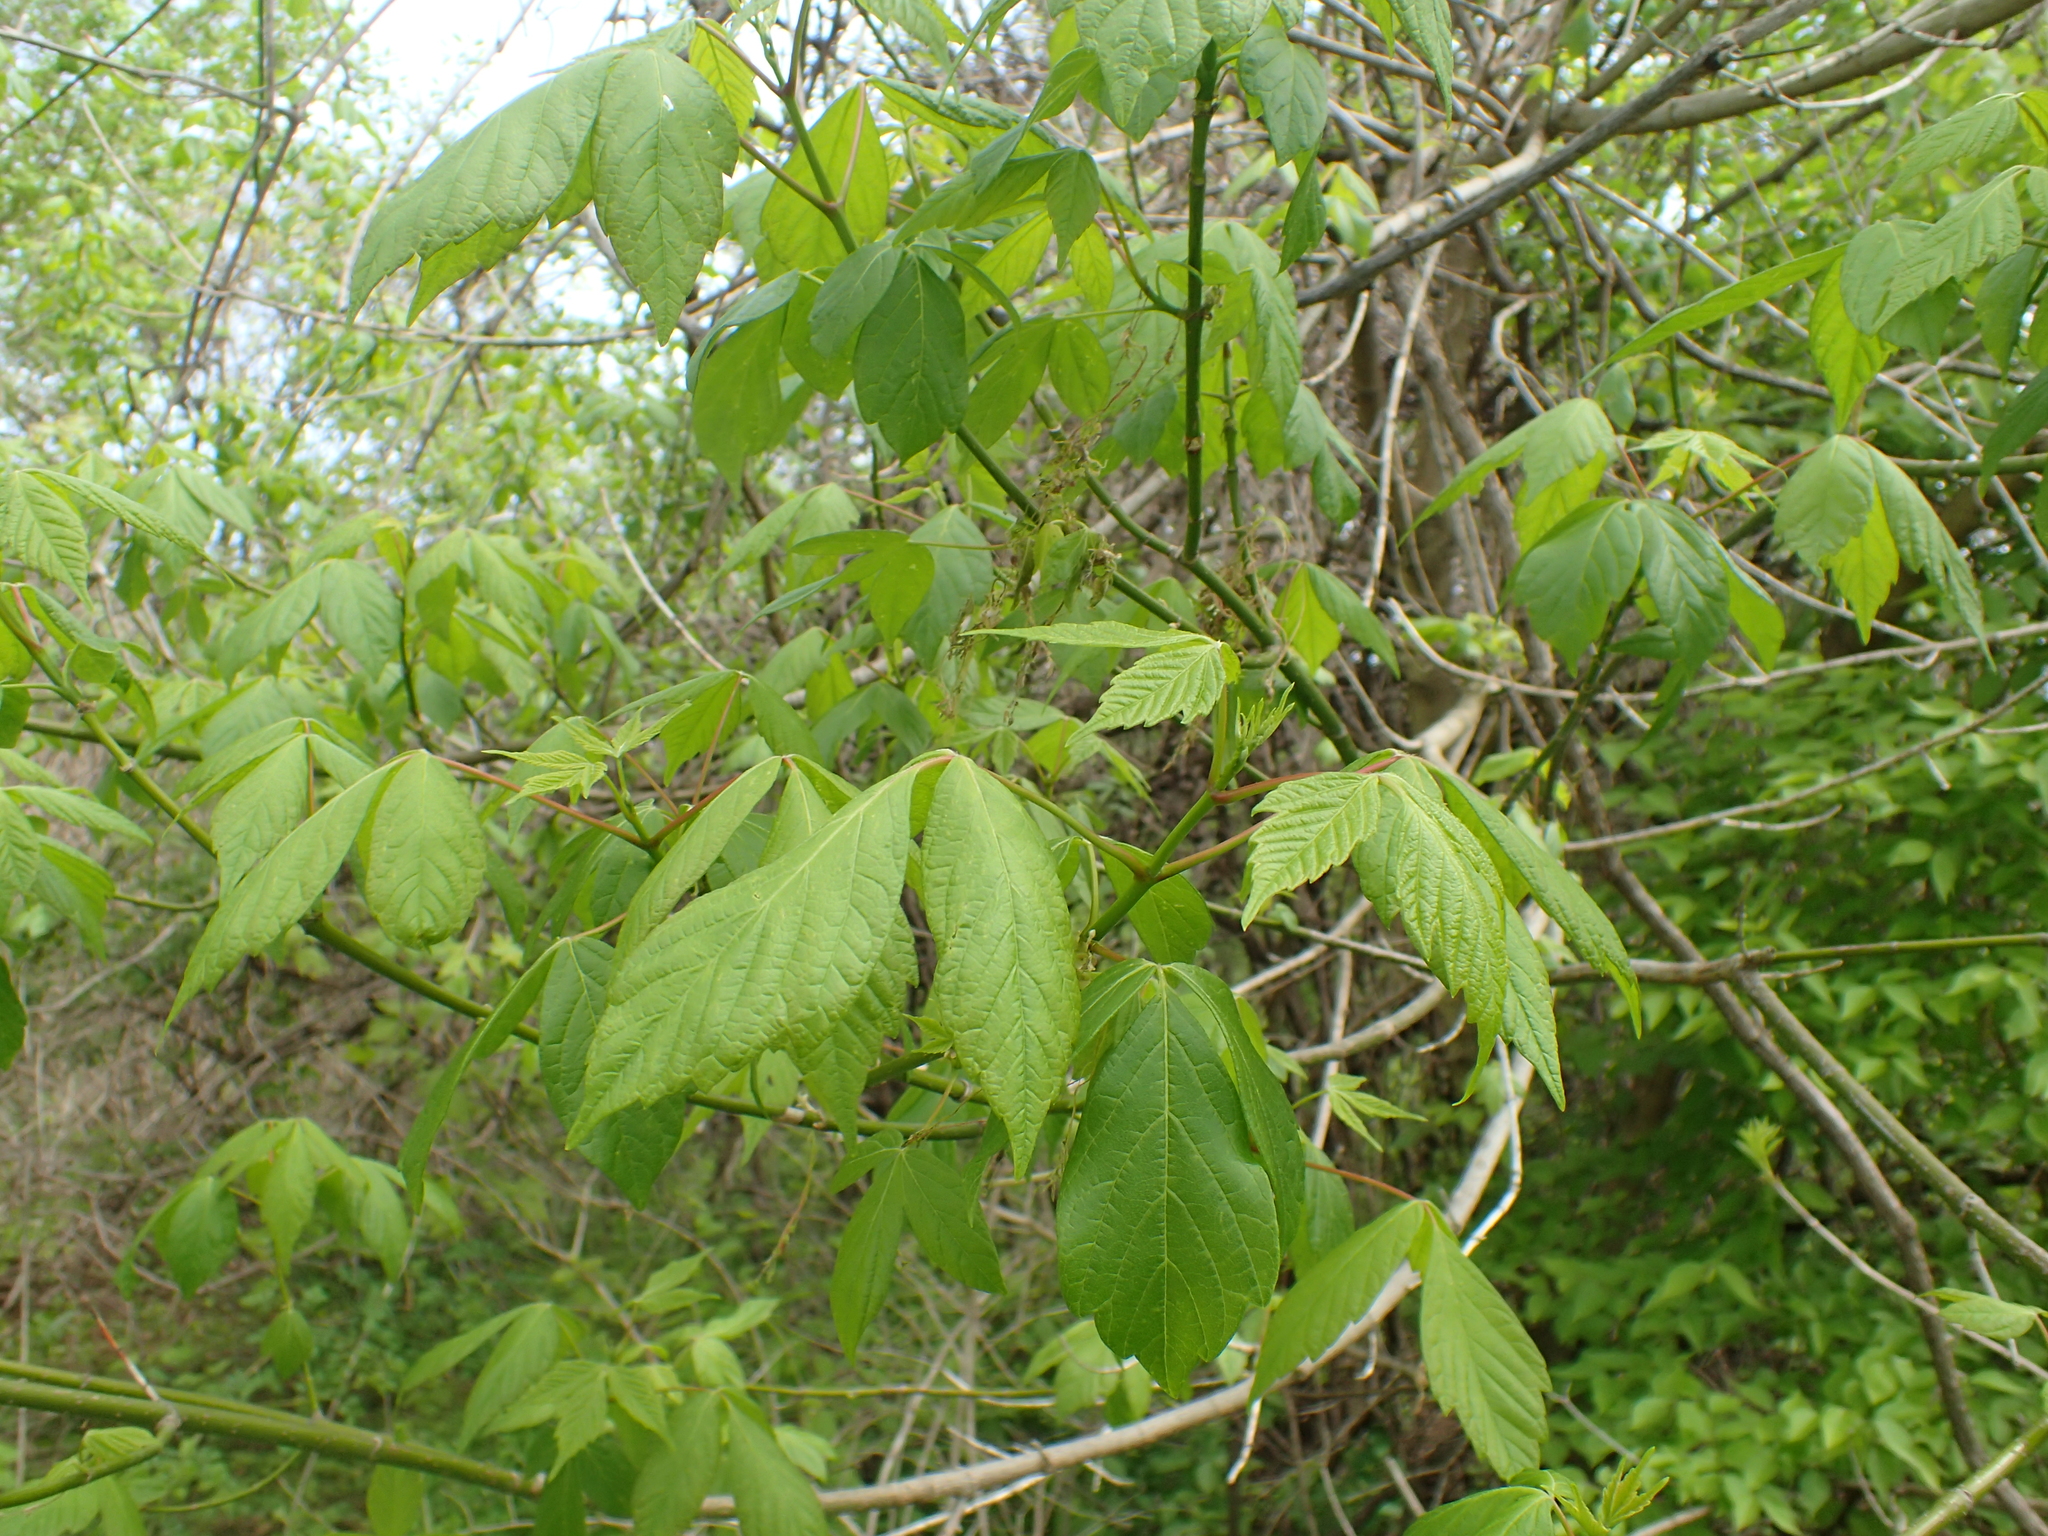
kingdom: Plantae
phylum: Tracheophyta
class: Magnoliopsida
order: Sapindales
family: Sapindaceae
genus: Acer
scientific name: Acer negundo
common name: Ashleaf maple
